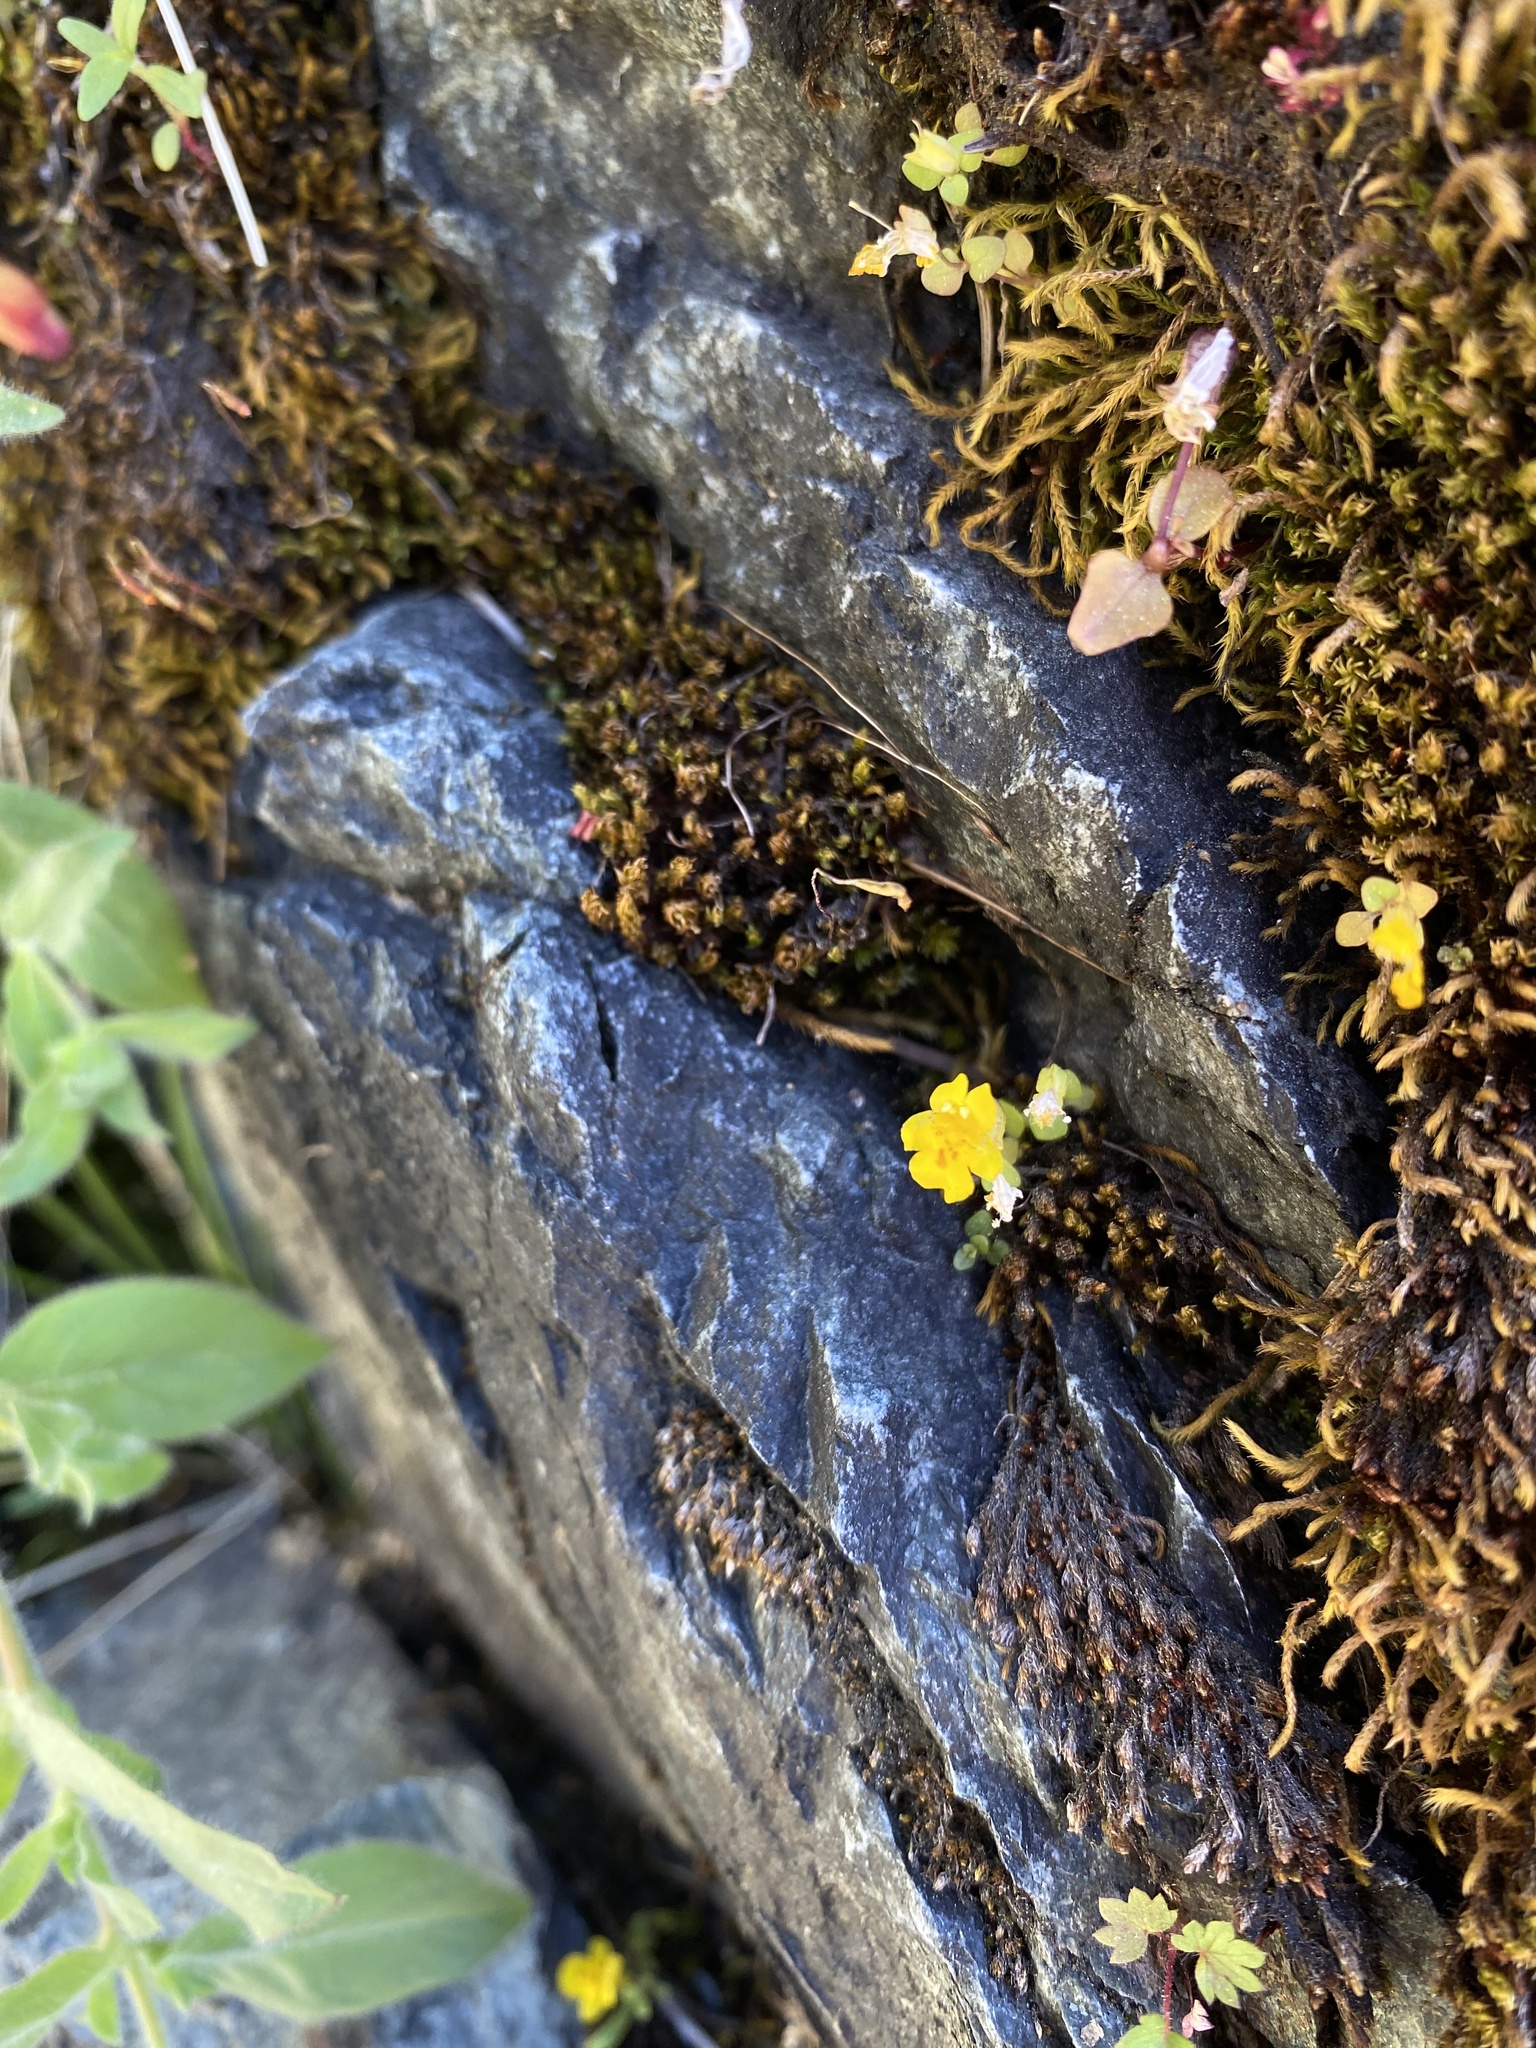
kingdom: Plantae
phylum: Tracheophyta
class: Magnoliopsida
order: Lamiales
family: Phrymaceae
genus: Erythranthe
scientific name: Erythranthe microphylla
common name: Bentham's monkeyflower
